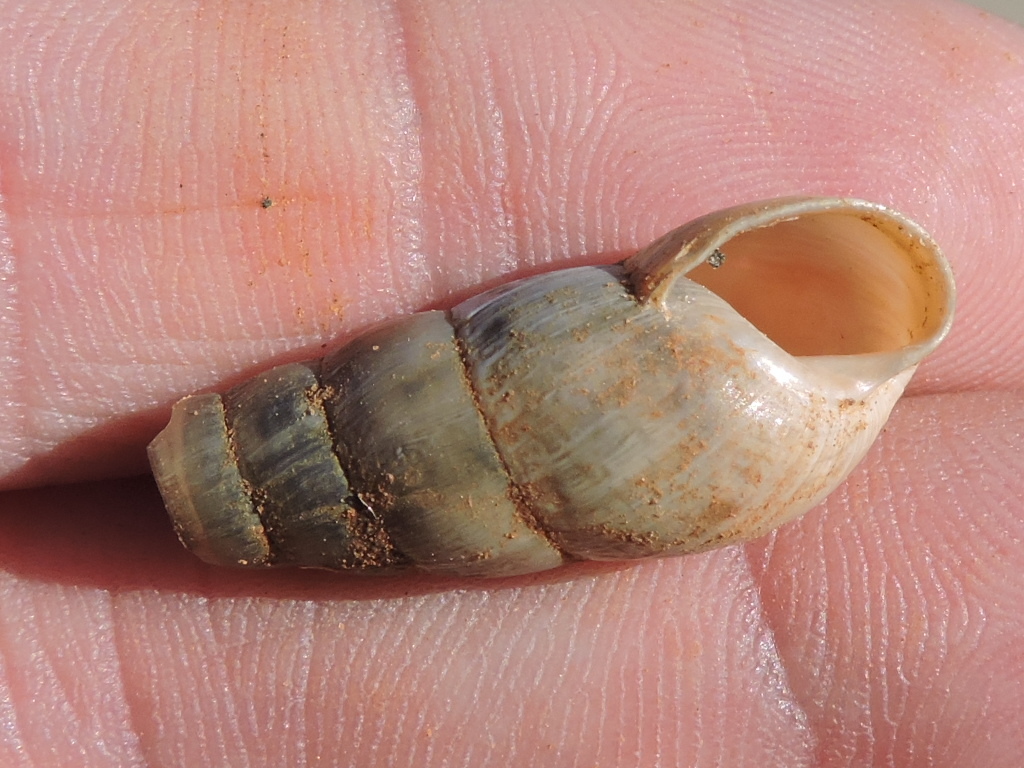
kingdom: Animalia
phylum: Mollusca
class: Gastropoda
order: Stylommatophora
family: Achatinidae
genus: Rumina
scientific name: Rumina decollata
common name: Decollate snail
